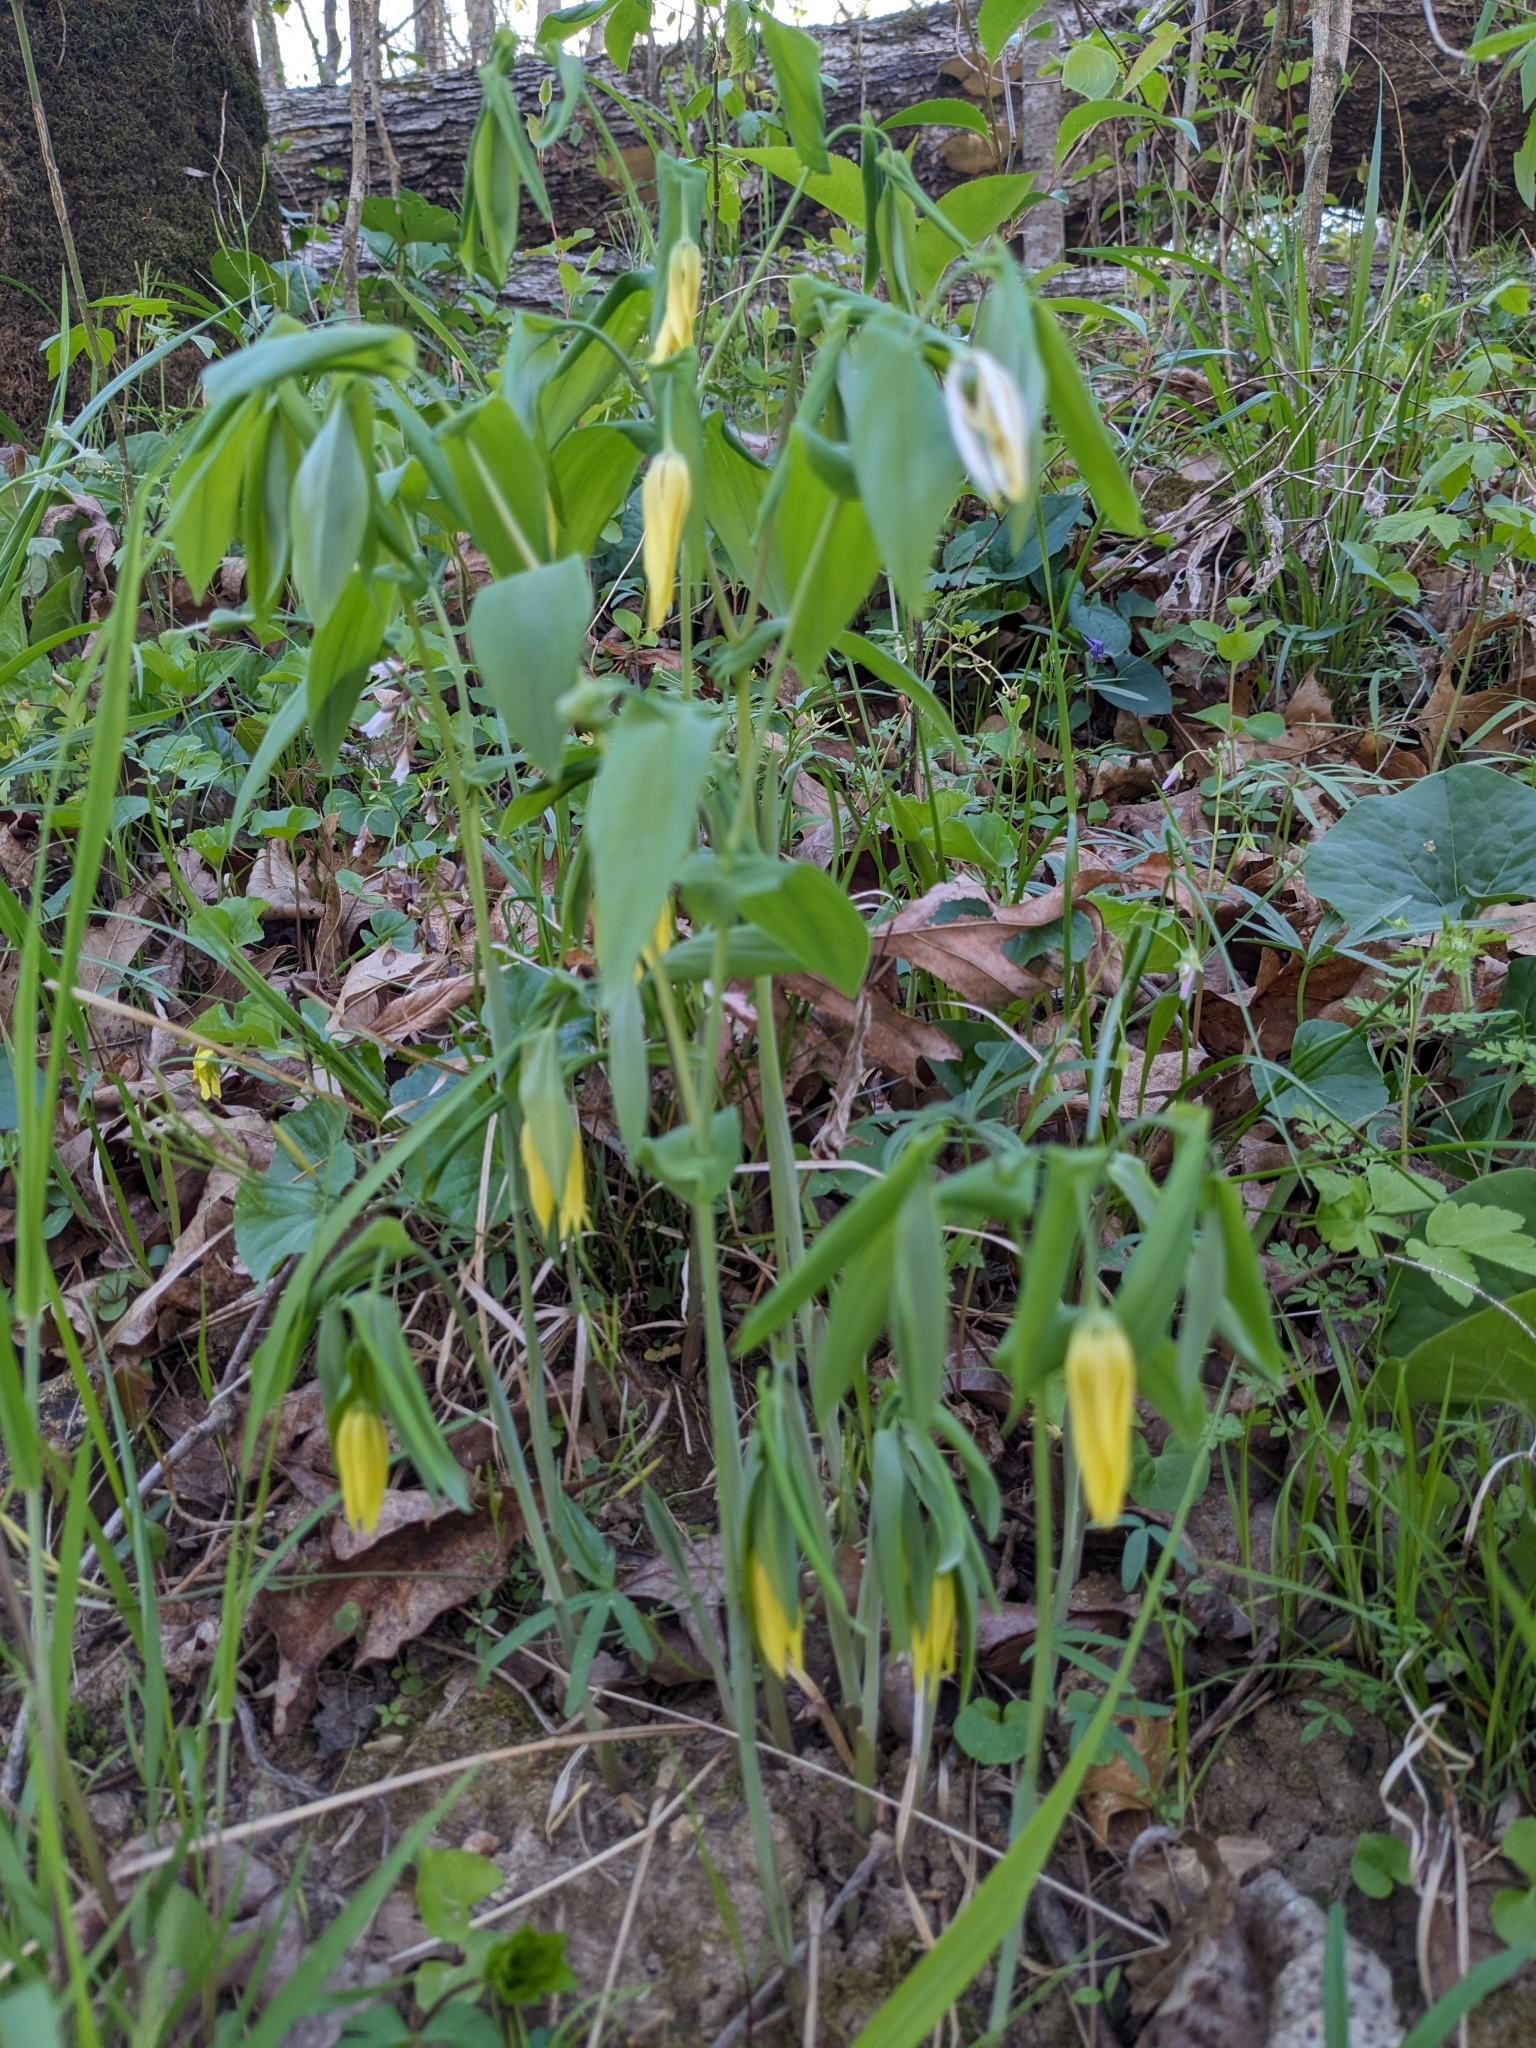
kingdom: Plantae
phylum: Tracheophyta
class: Liliopsida
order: Liliales
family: Colchicaceae
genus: Uvularia
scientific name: Uvularia grandiflora
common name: Bellwort
